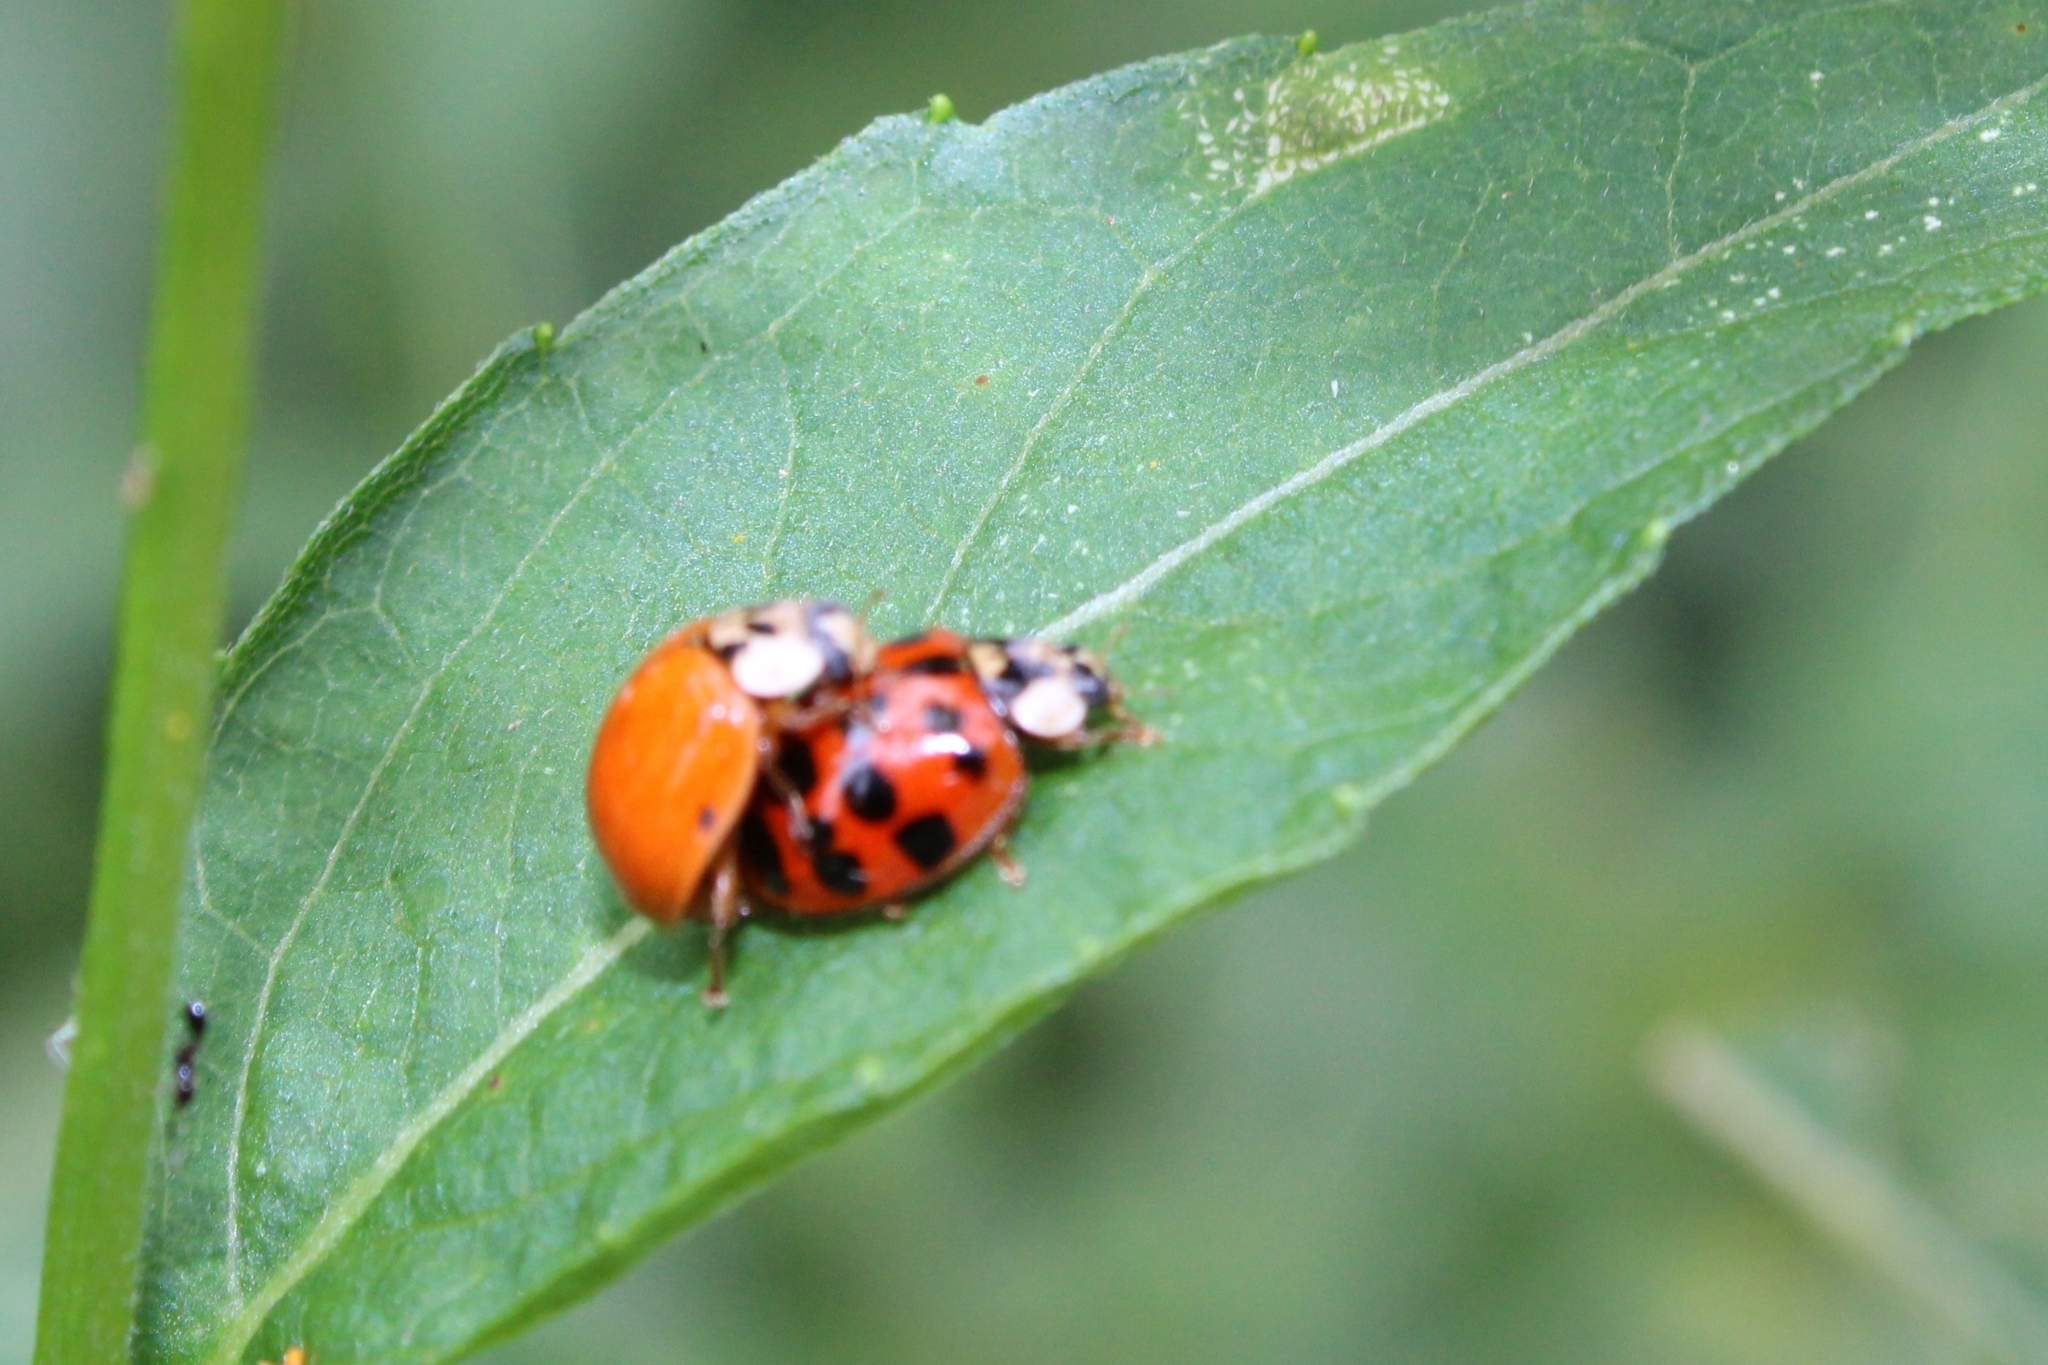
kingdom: Animalia
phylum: Arthropoda
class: Insecta
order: Coleoptera
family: Coccinellidae
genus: Harmonia
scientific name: Harmonia axyridis
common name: Harlequin ladybird
